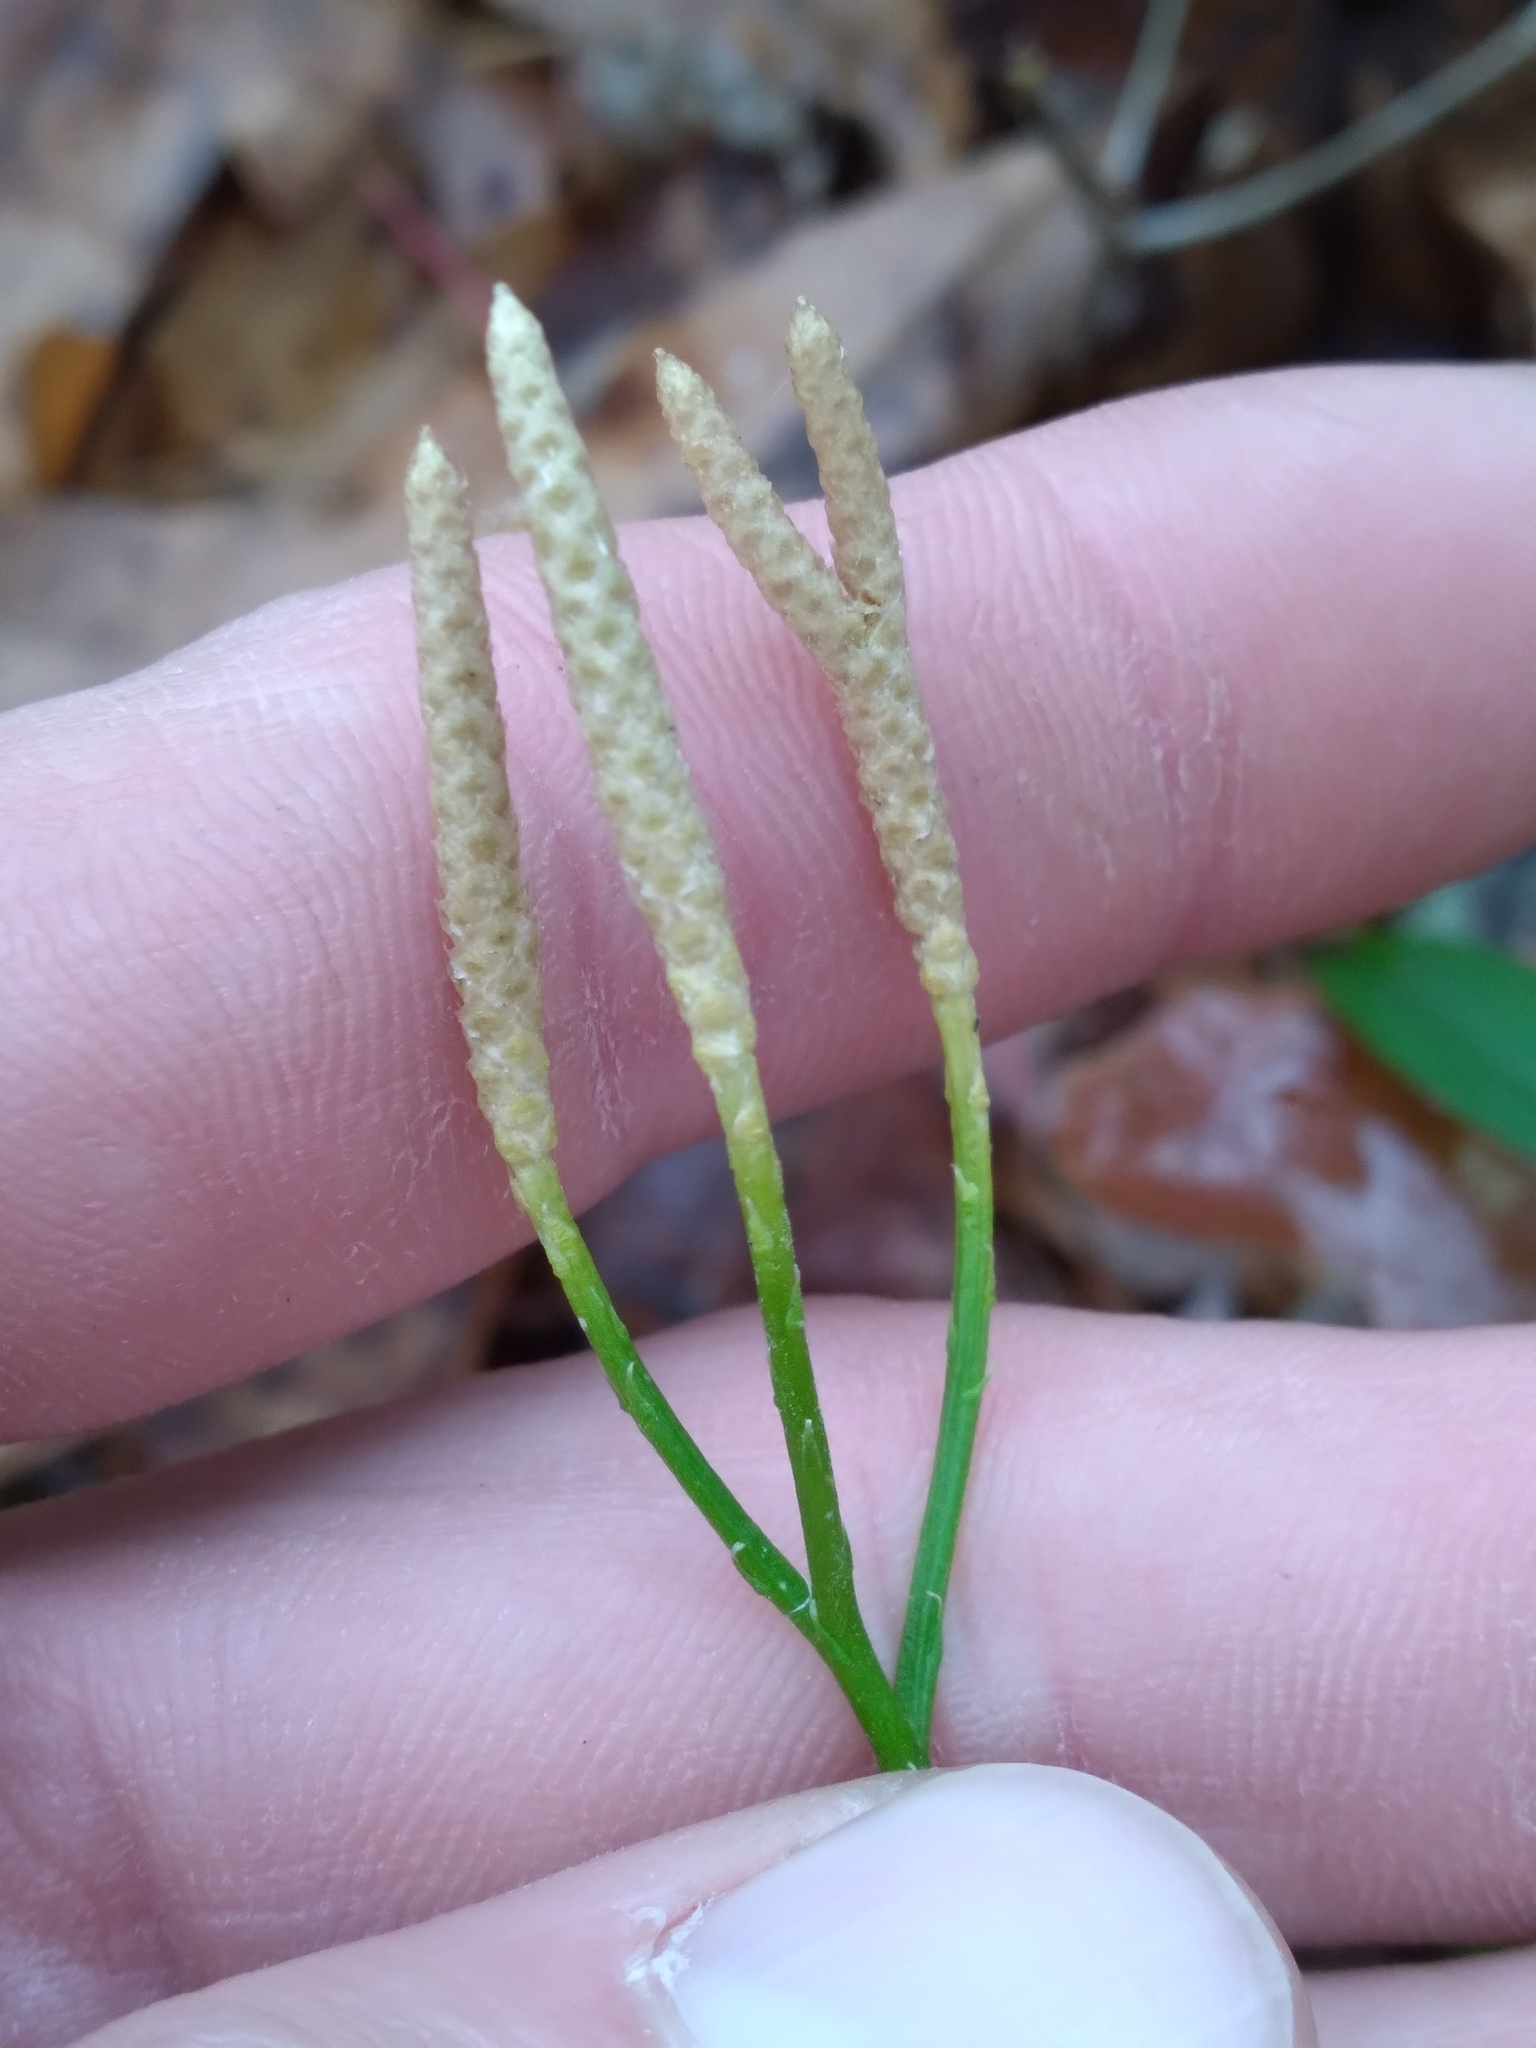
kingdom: Plantae
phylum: Tracheophyta
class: Lycopodiopsida
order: Lycopodiales
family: Lycopodiaceae
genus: Diphasiastrum
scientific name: Diphasiastrum digitatum
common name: Southern running-pine
